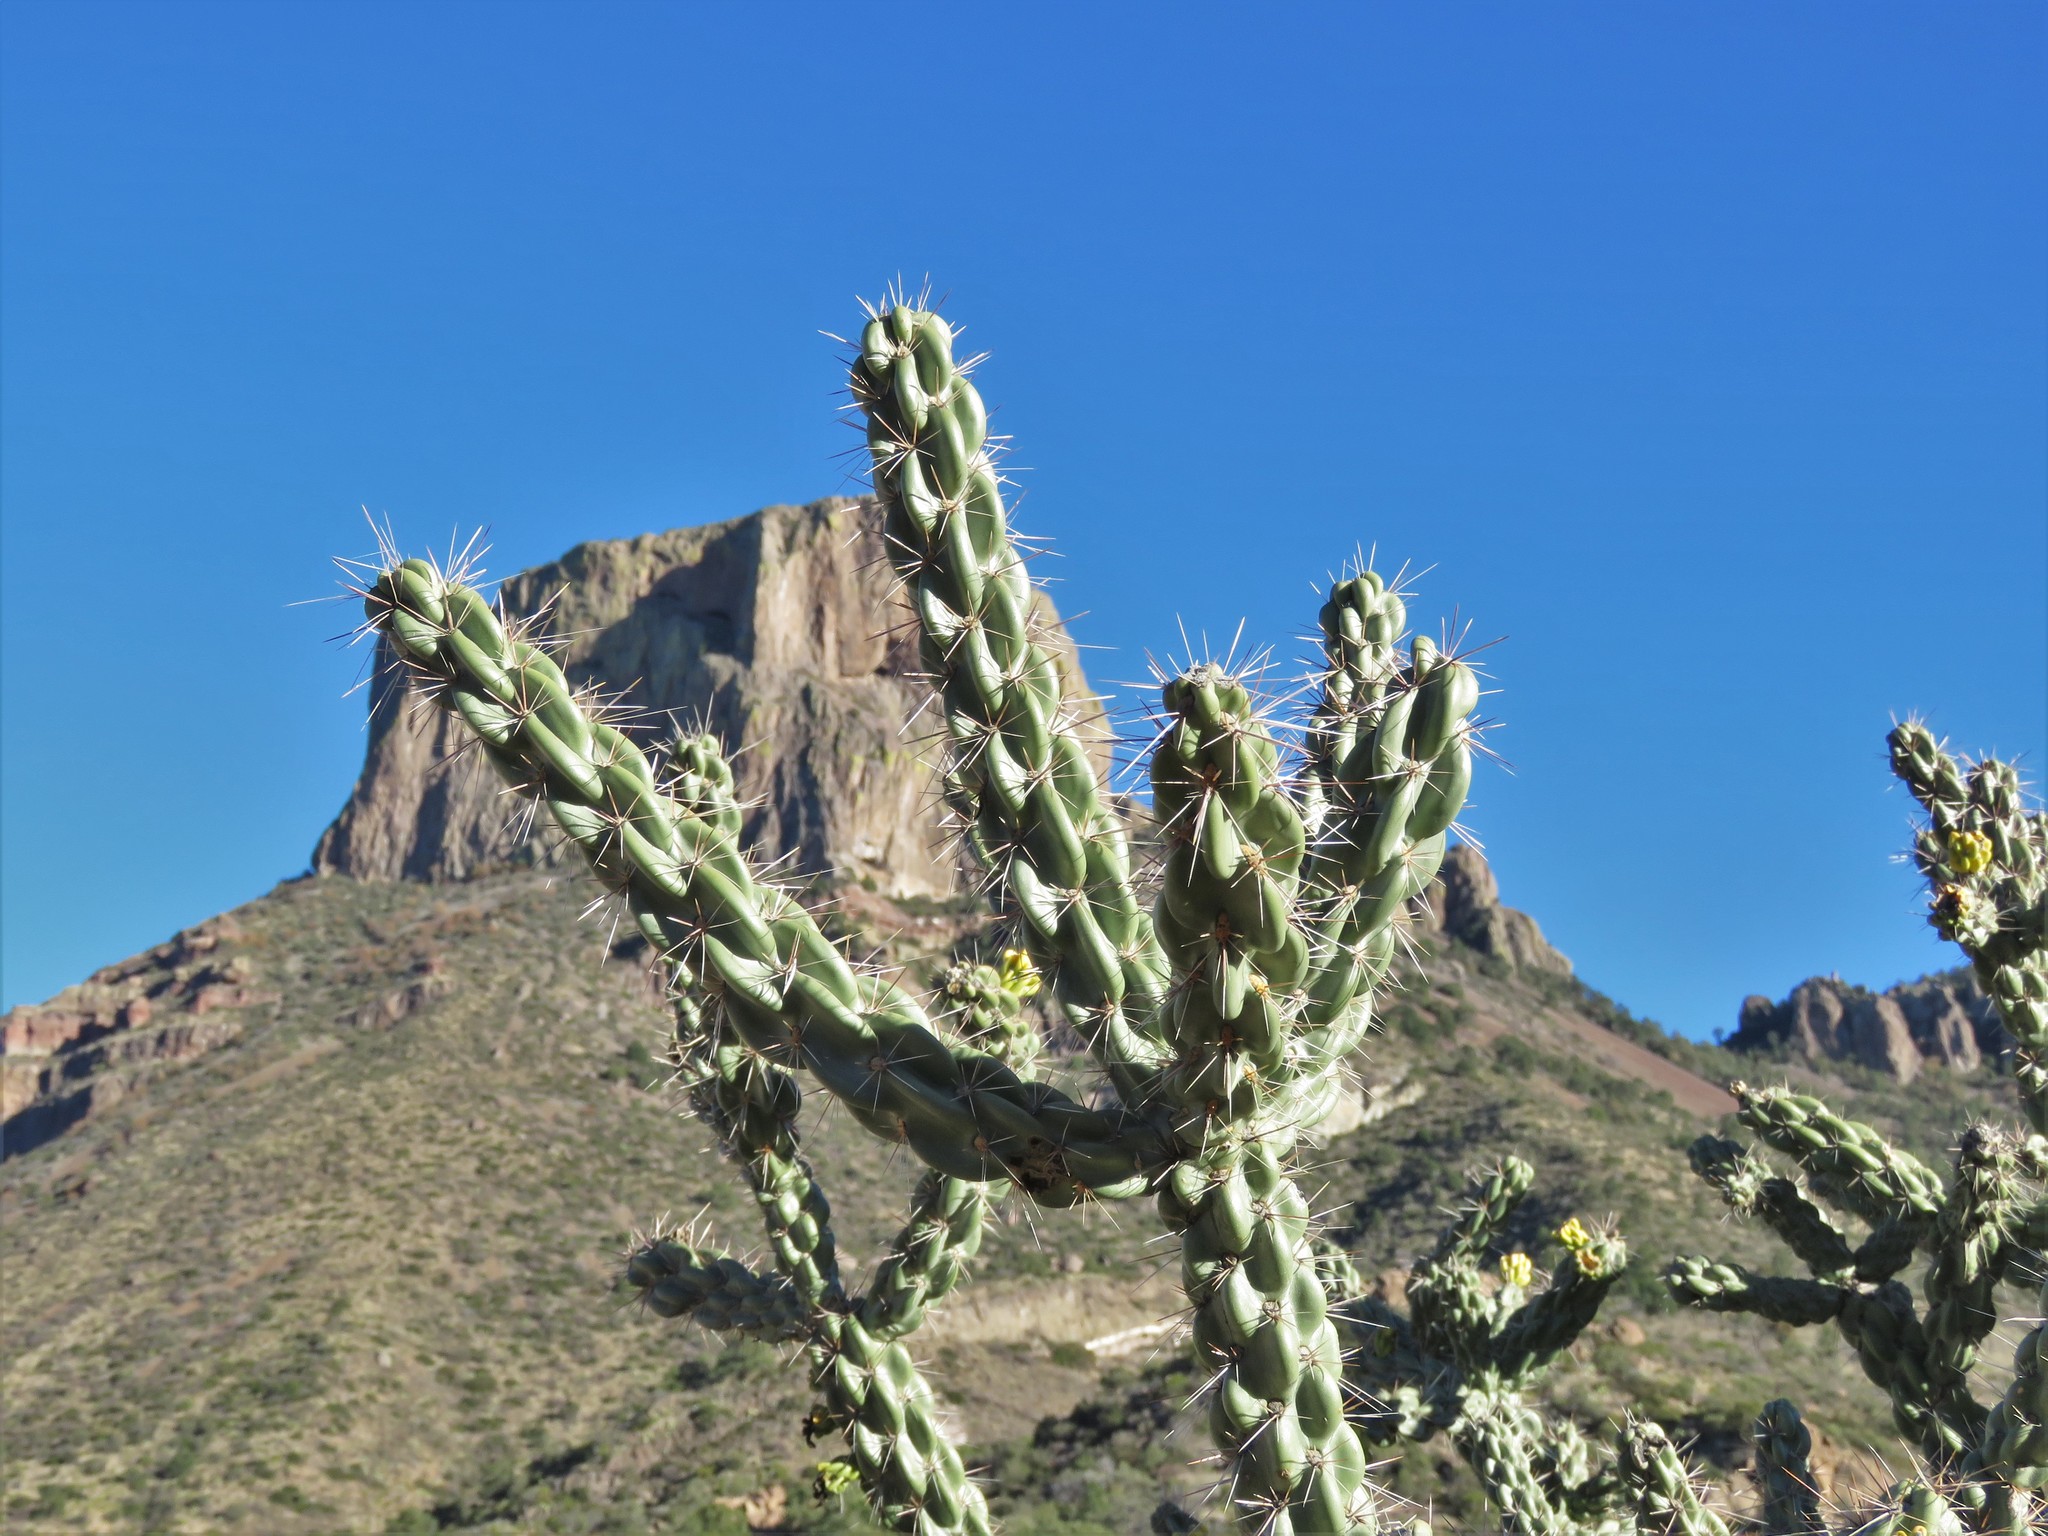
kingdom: Plantae
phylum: Tracheophyta
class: Magnoliopsida
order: Caryophyllales
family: Cactaceae
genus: Cylindropuntia
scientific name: Cylindropuntia imbricata
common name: Candelabrum cactus
